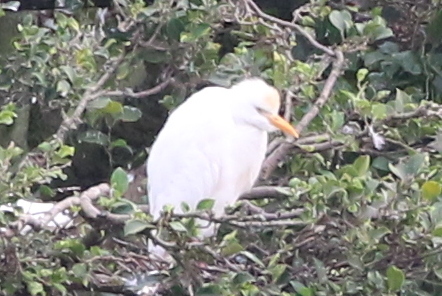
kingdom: Animalia
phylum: Chordata
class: Aves
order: Pelecaniformes
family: Ardeidae
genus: Bubulcus
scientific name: Bubulcus ibis
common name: Cattle egret
